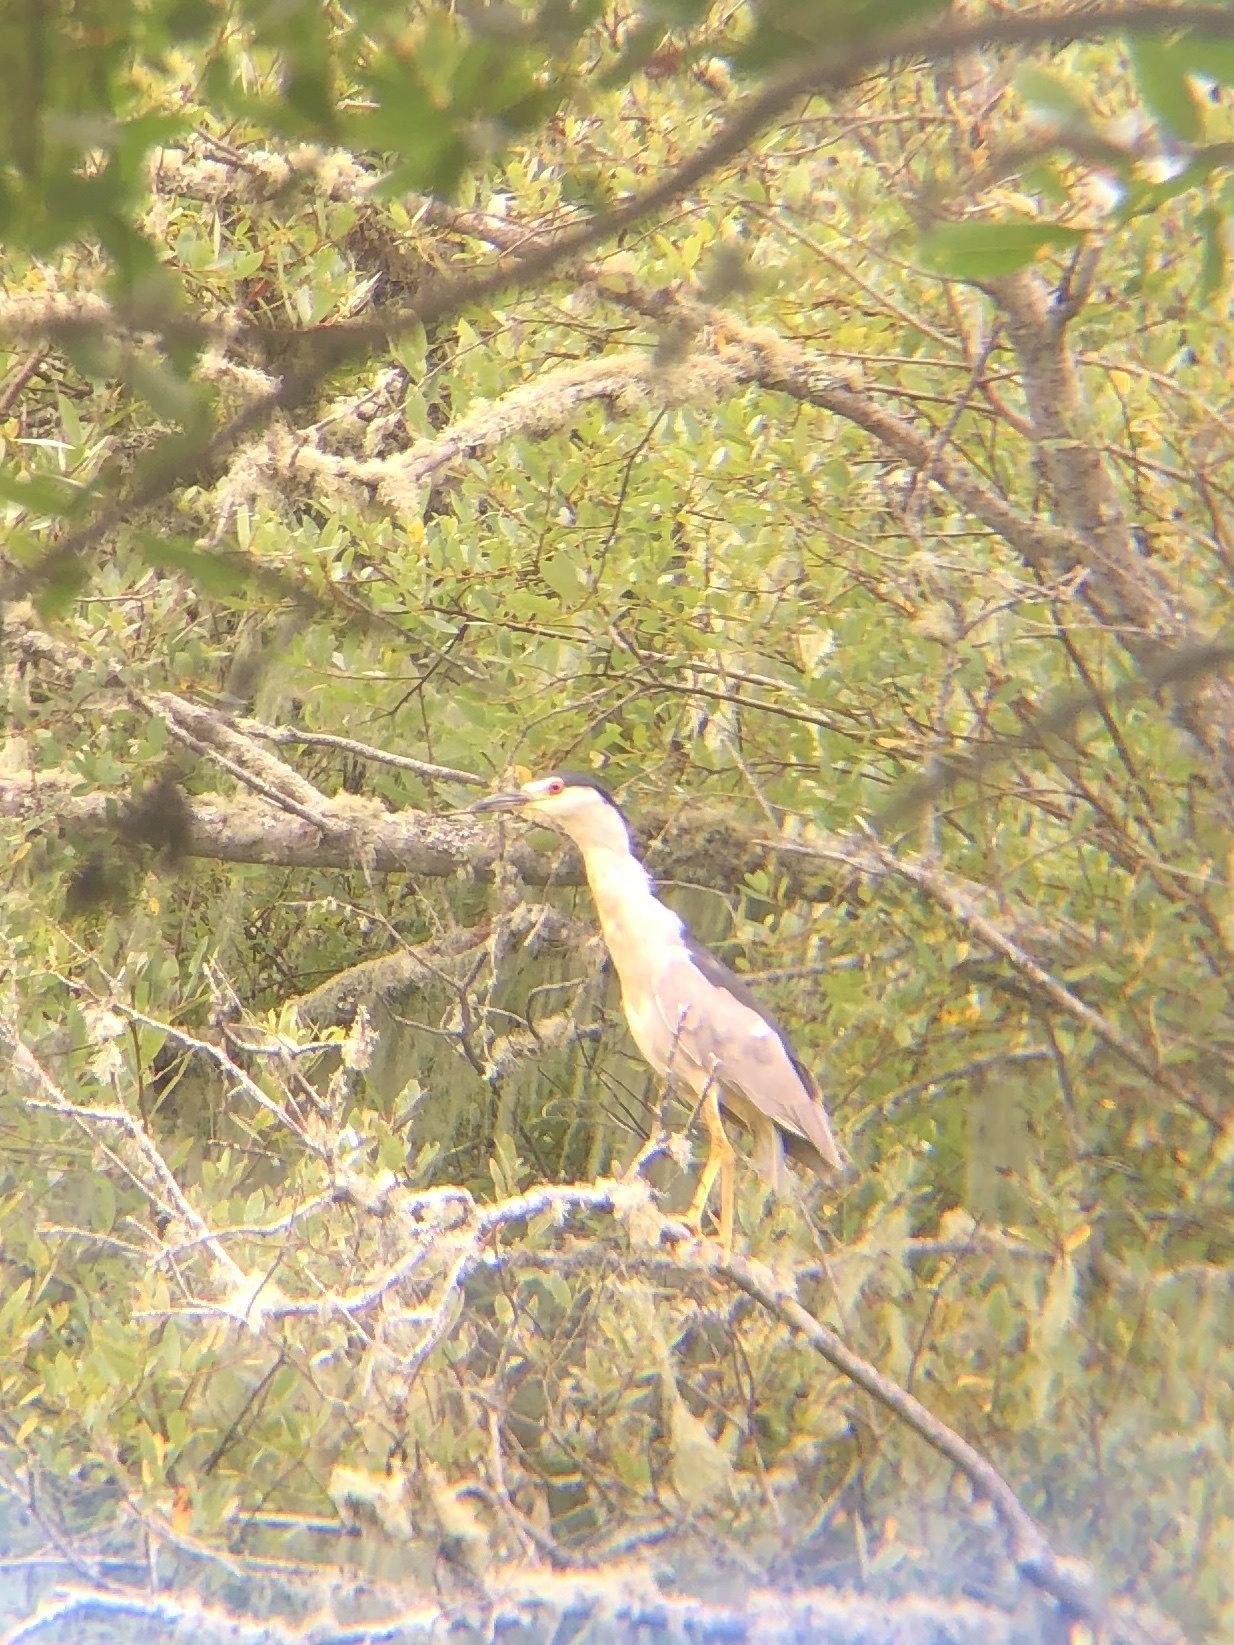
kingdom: Animalia
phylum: Chordata
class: Aves
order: Pelecaniformes
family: Ardeidae
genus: Nycticorax
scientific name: Nycticorax nycticorax
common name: Black-crowned night heron
